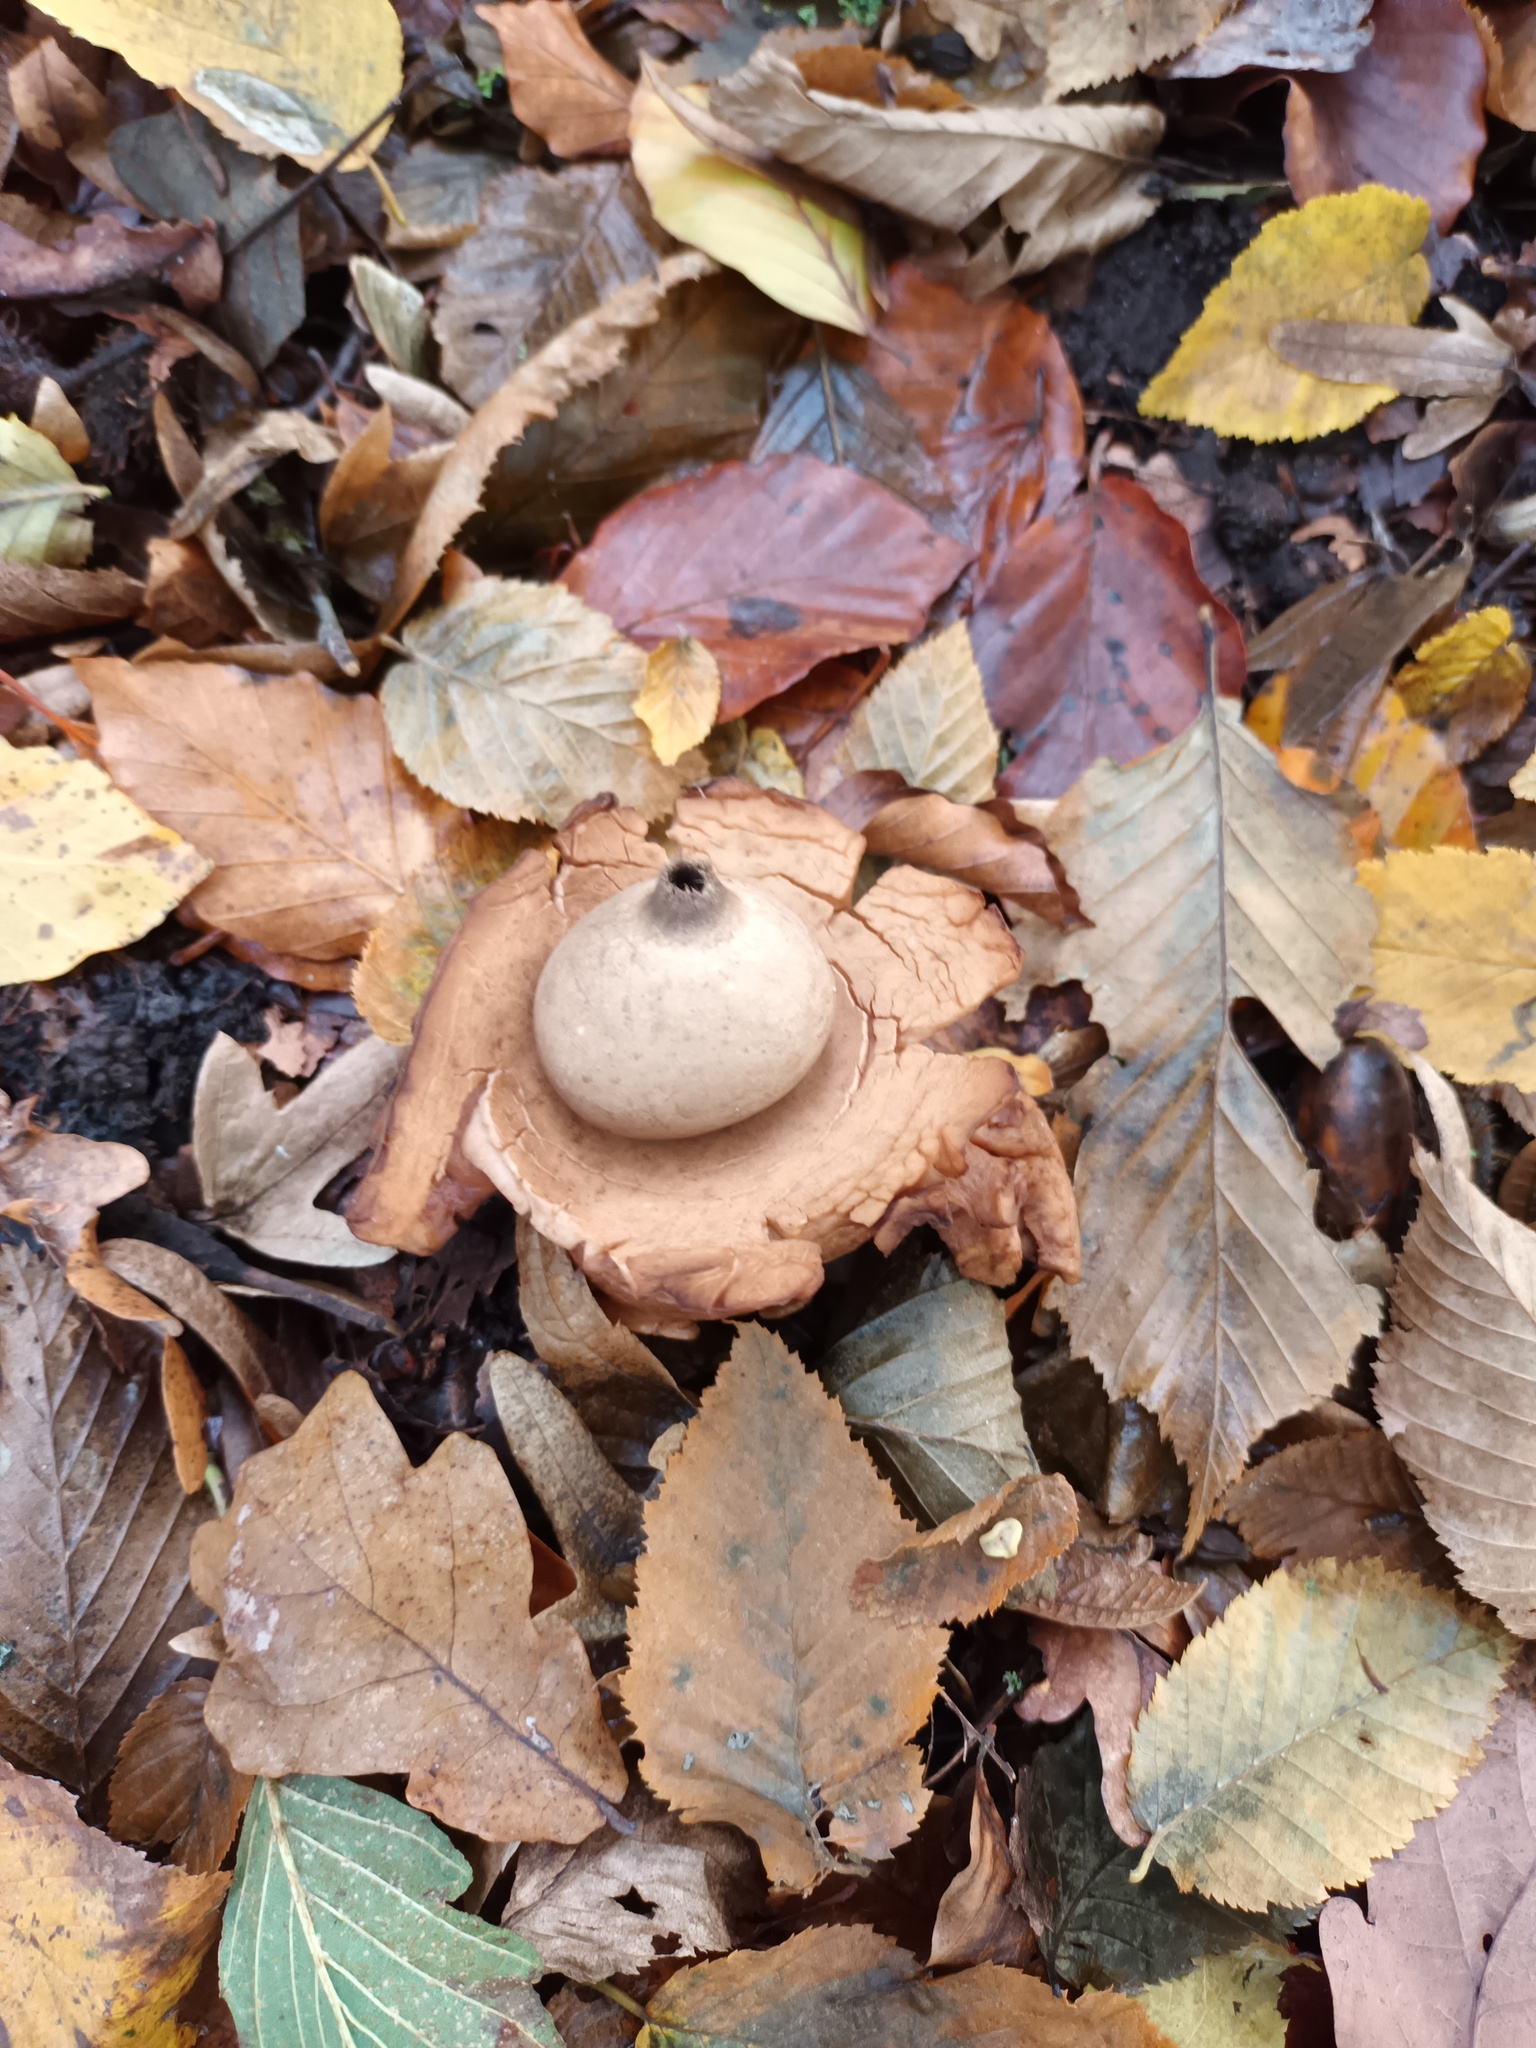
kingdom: Fungi
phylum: Basidiomycota
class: Agaricomycetes
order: Geastrales
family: Geastraceae
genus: Geastrum
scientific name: Geastrum michelianum
